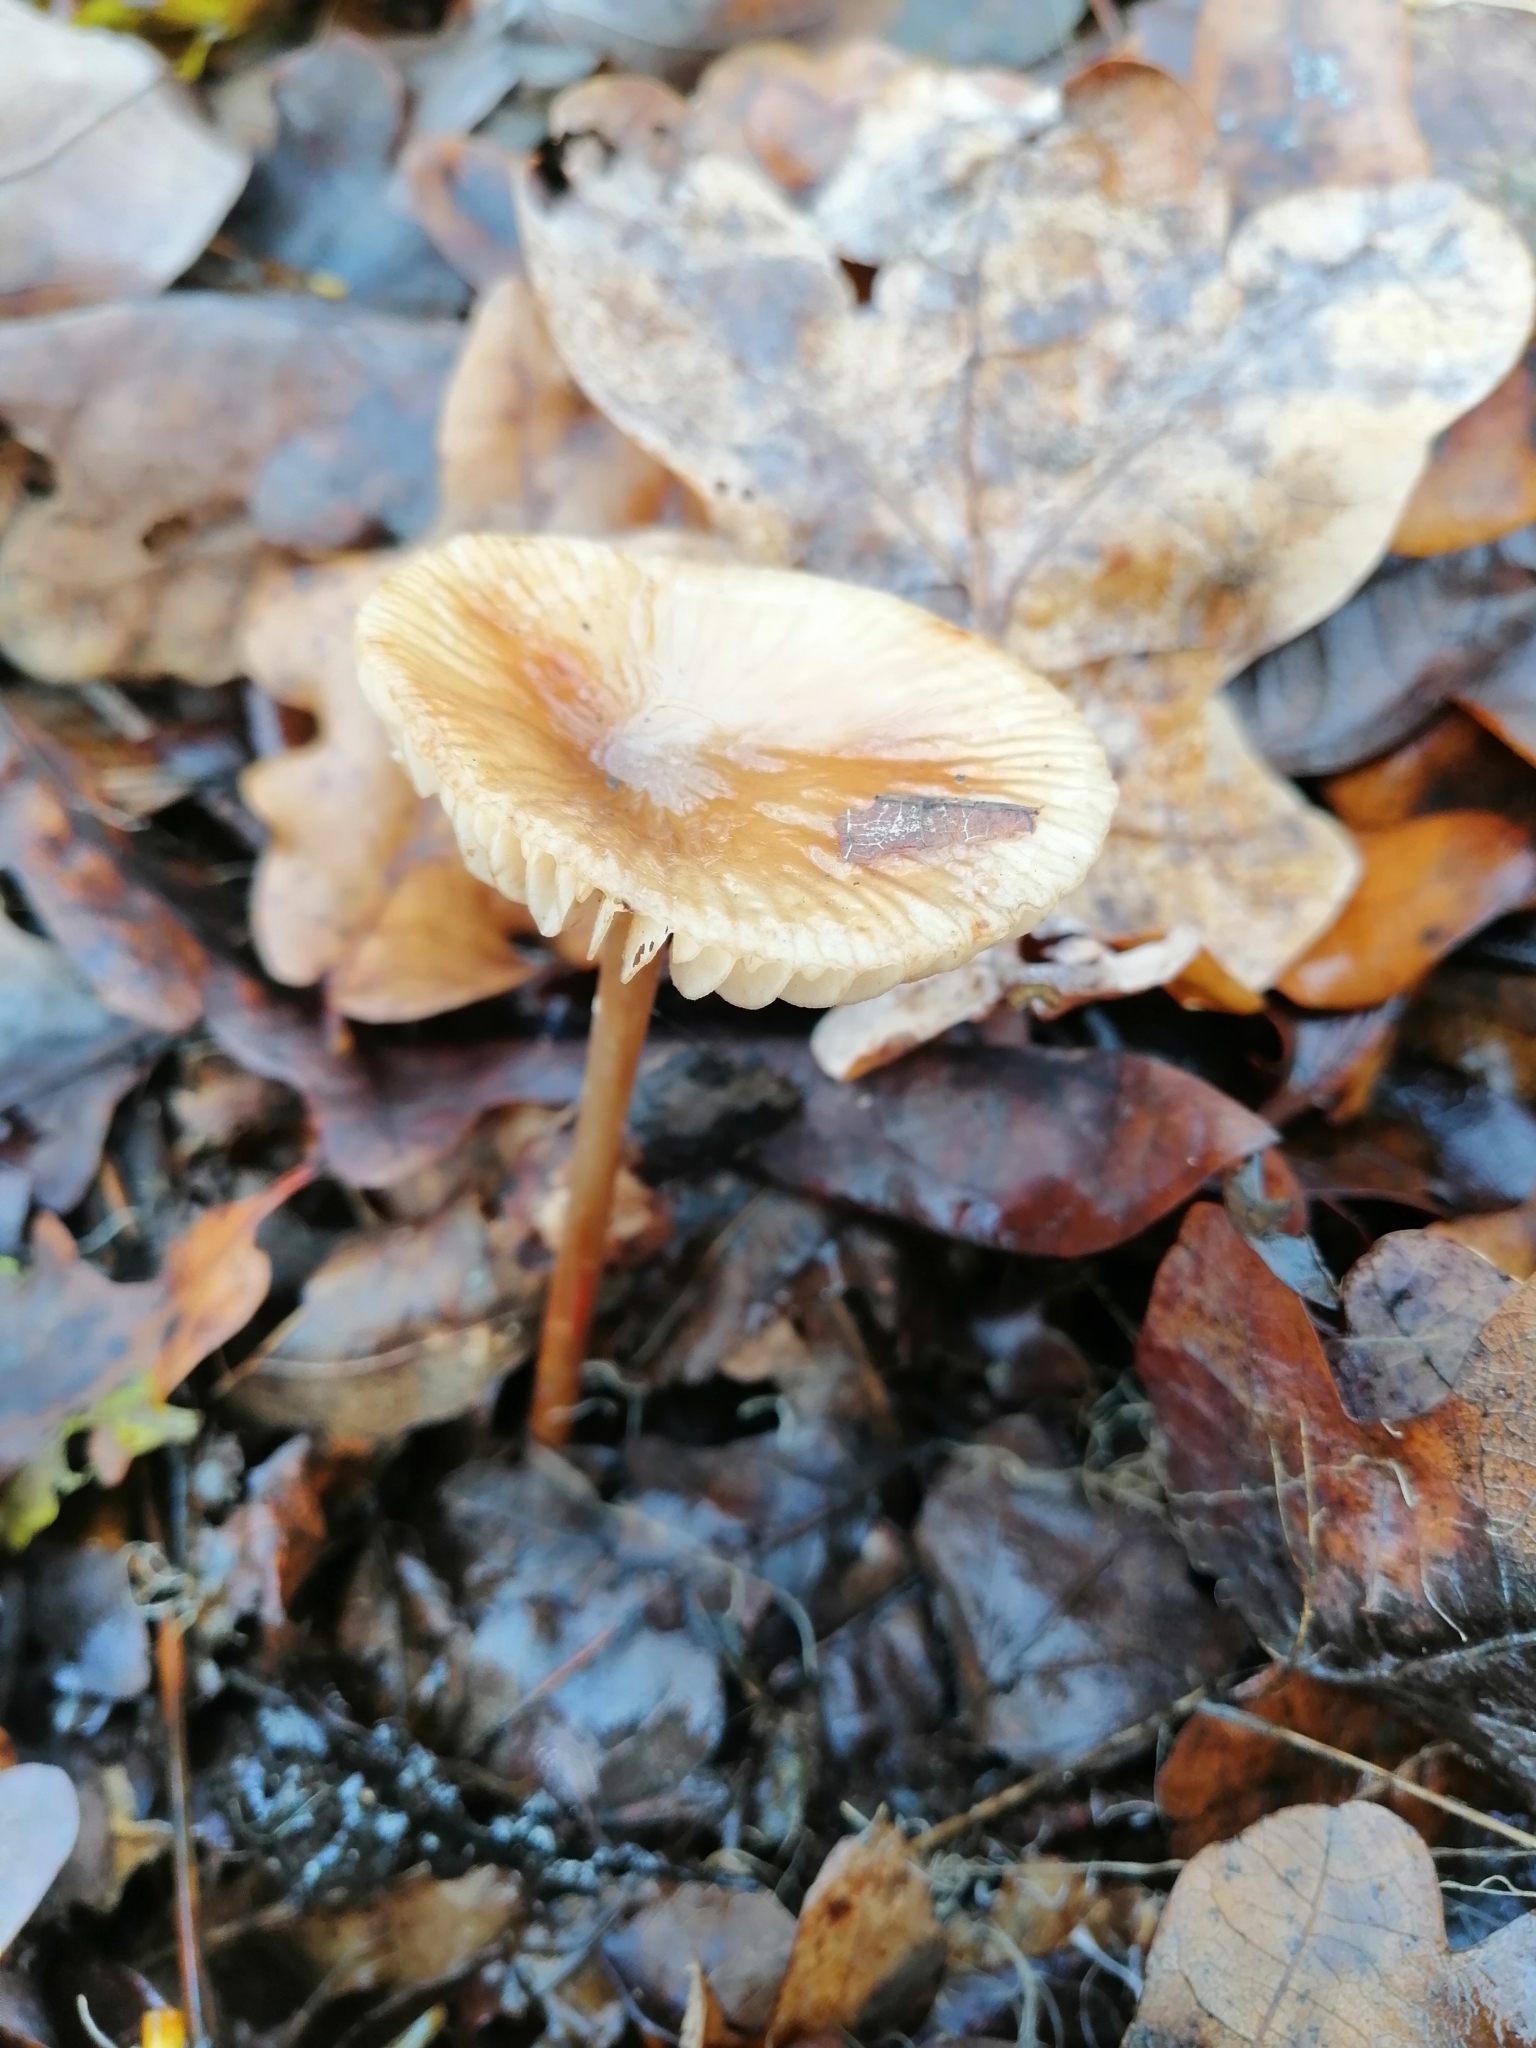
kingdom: Fungi
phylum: Basidiomycota
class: Agaricomycetes
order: Agaricales
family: Physalacriaceae
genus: Hymenopellis
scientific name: Hymenopellis radicata
